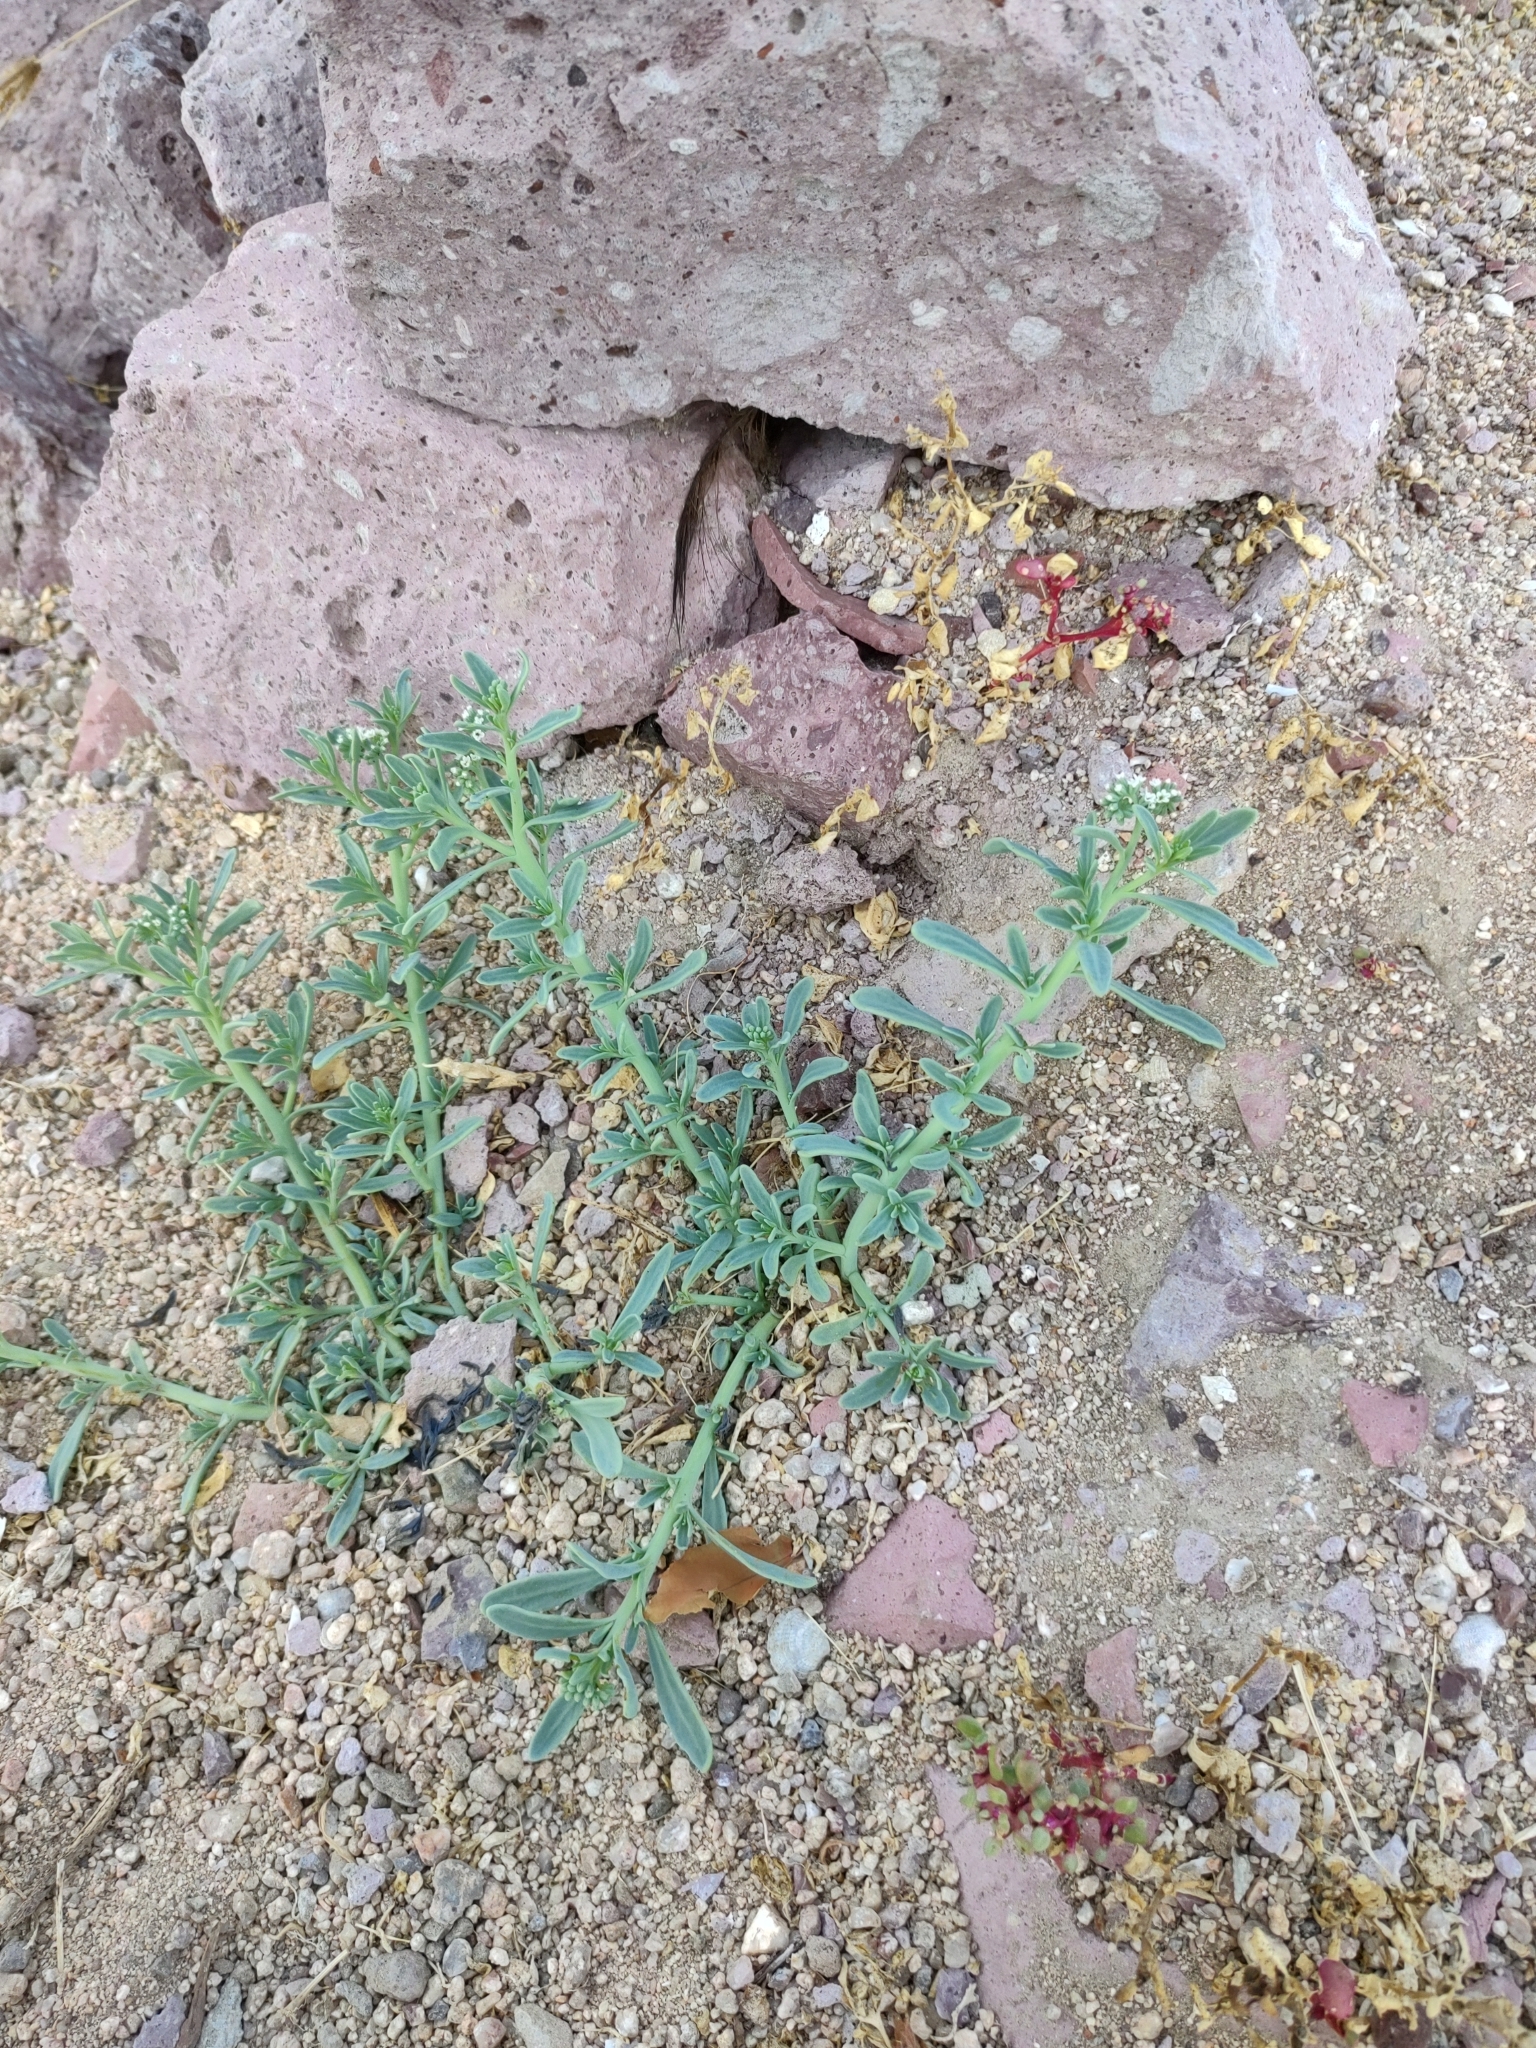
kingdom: Plantae
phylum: Tracheophyta
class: Magnoliopsida
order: Boraginales
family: Heliotropiaceae
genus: Heliotropium
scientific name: Heliotropium curassavicum
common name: Seaside heliotrope
